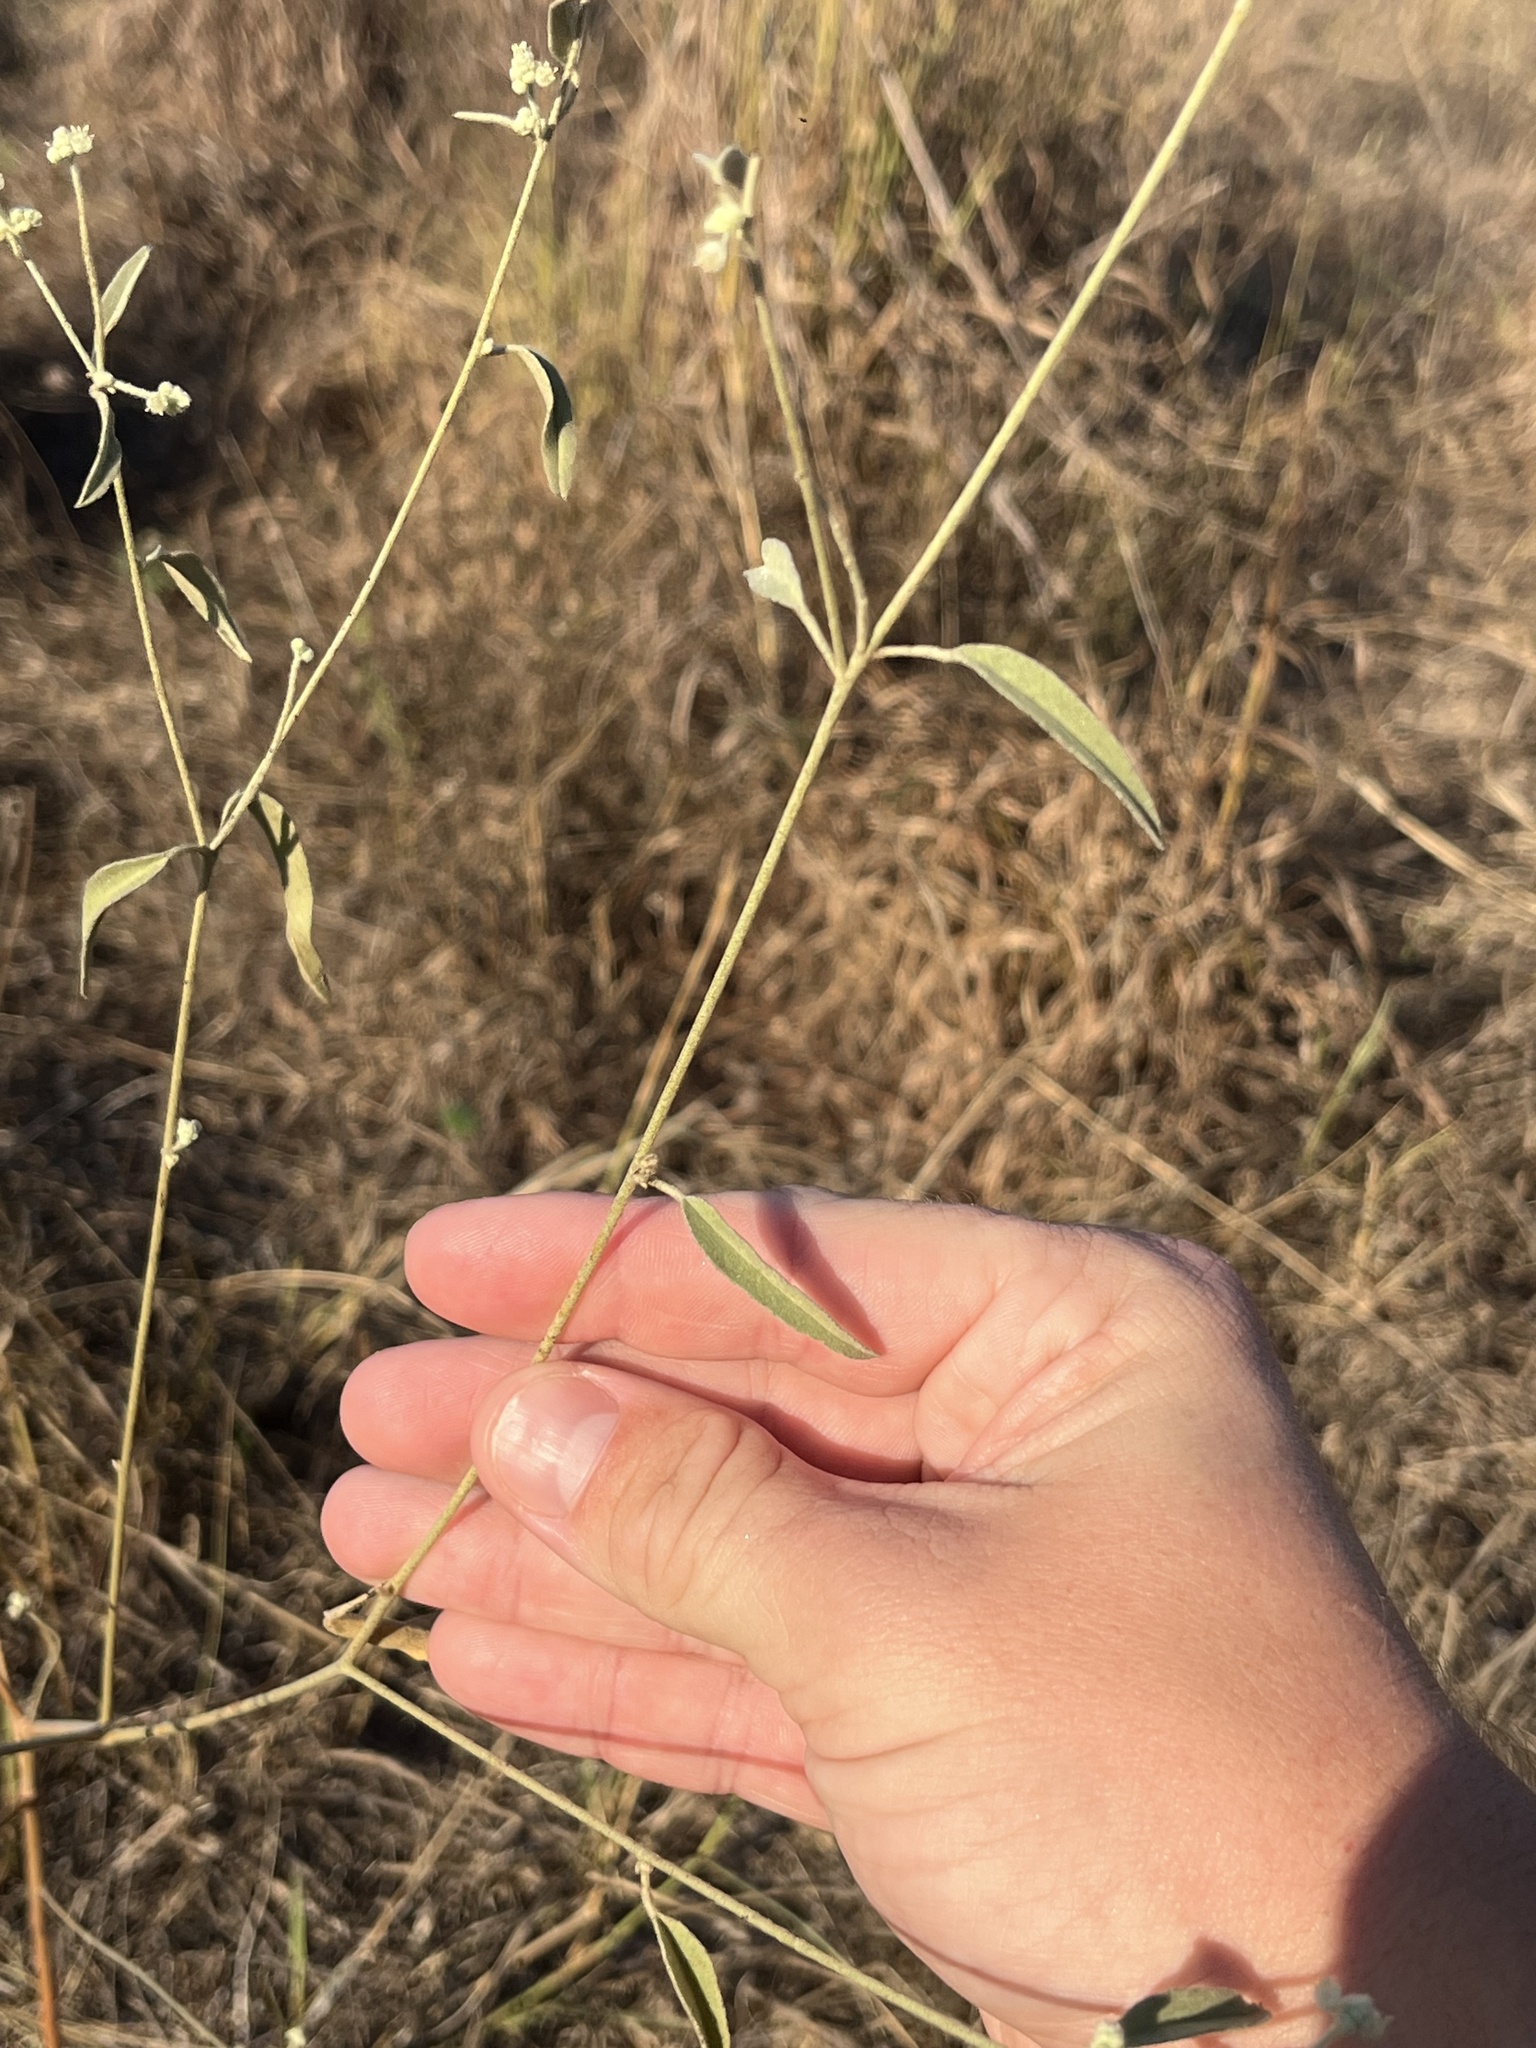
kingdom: Plantae
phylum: Tracheophyta
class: Magnoliopsida
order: Malpighiales
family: Euphorbiaceae
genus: Croton
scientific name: Croton texensis
